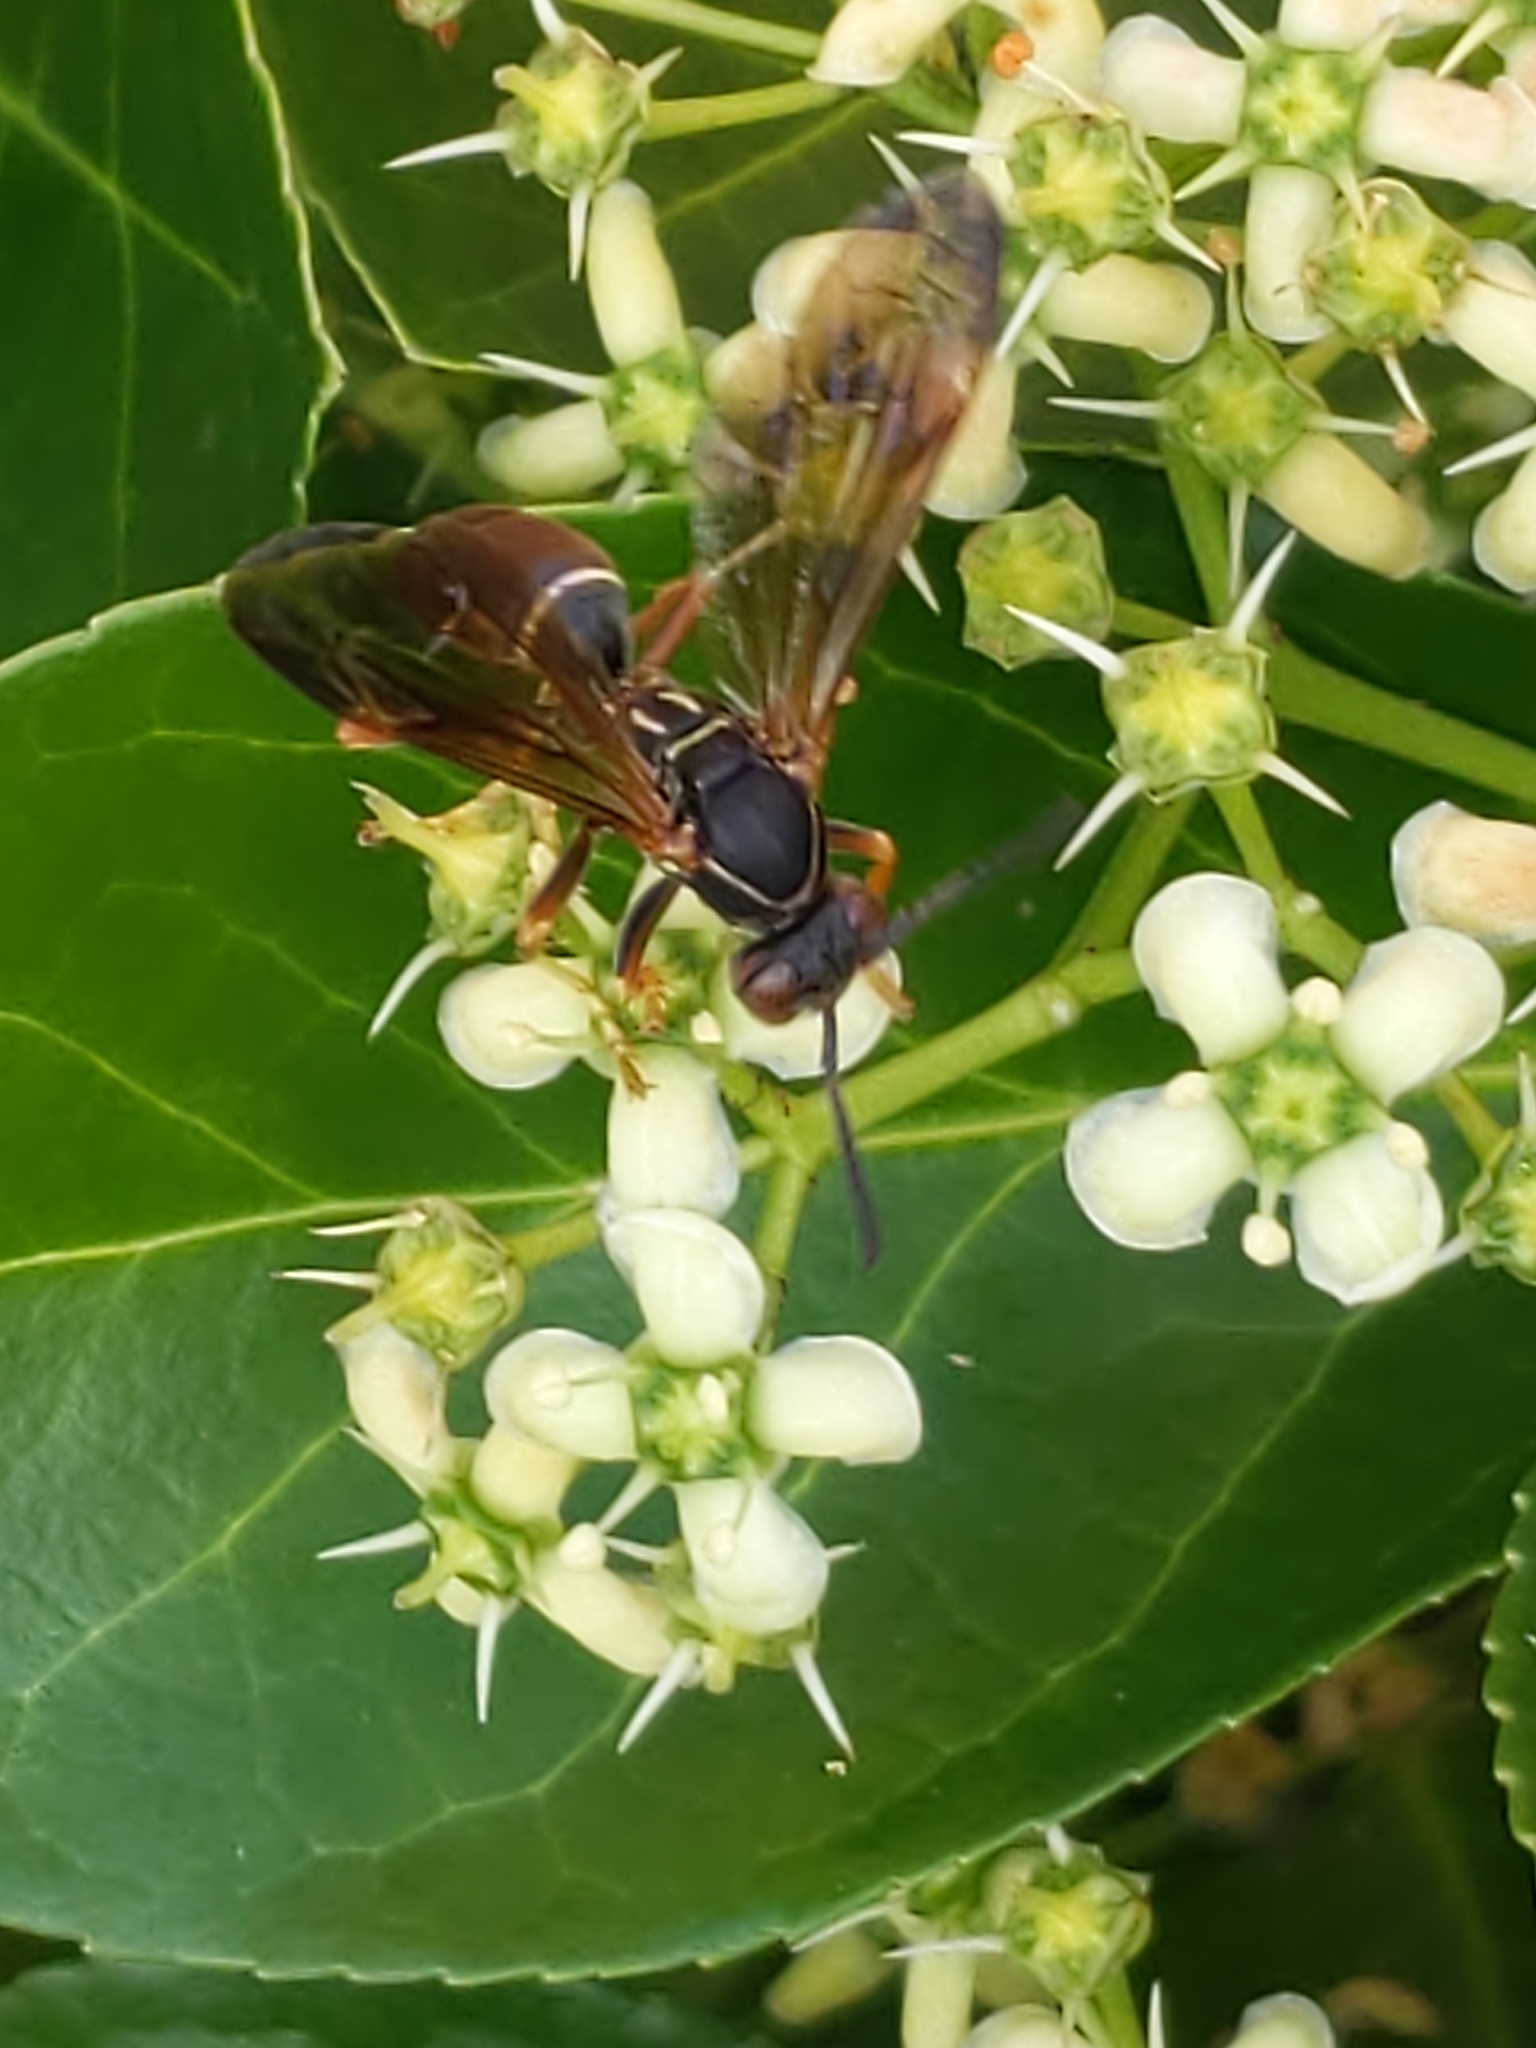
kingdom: Animalia
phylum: Arthropoda
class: Insecta
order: Hymenoptera
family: Vespidae
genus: Fuscopolistes
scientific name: Fuscopolistes
